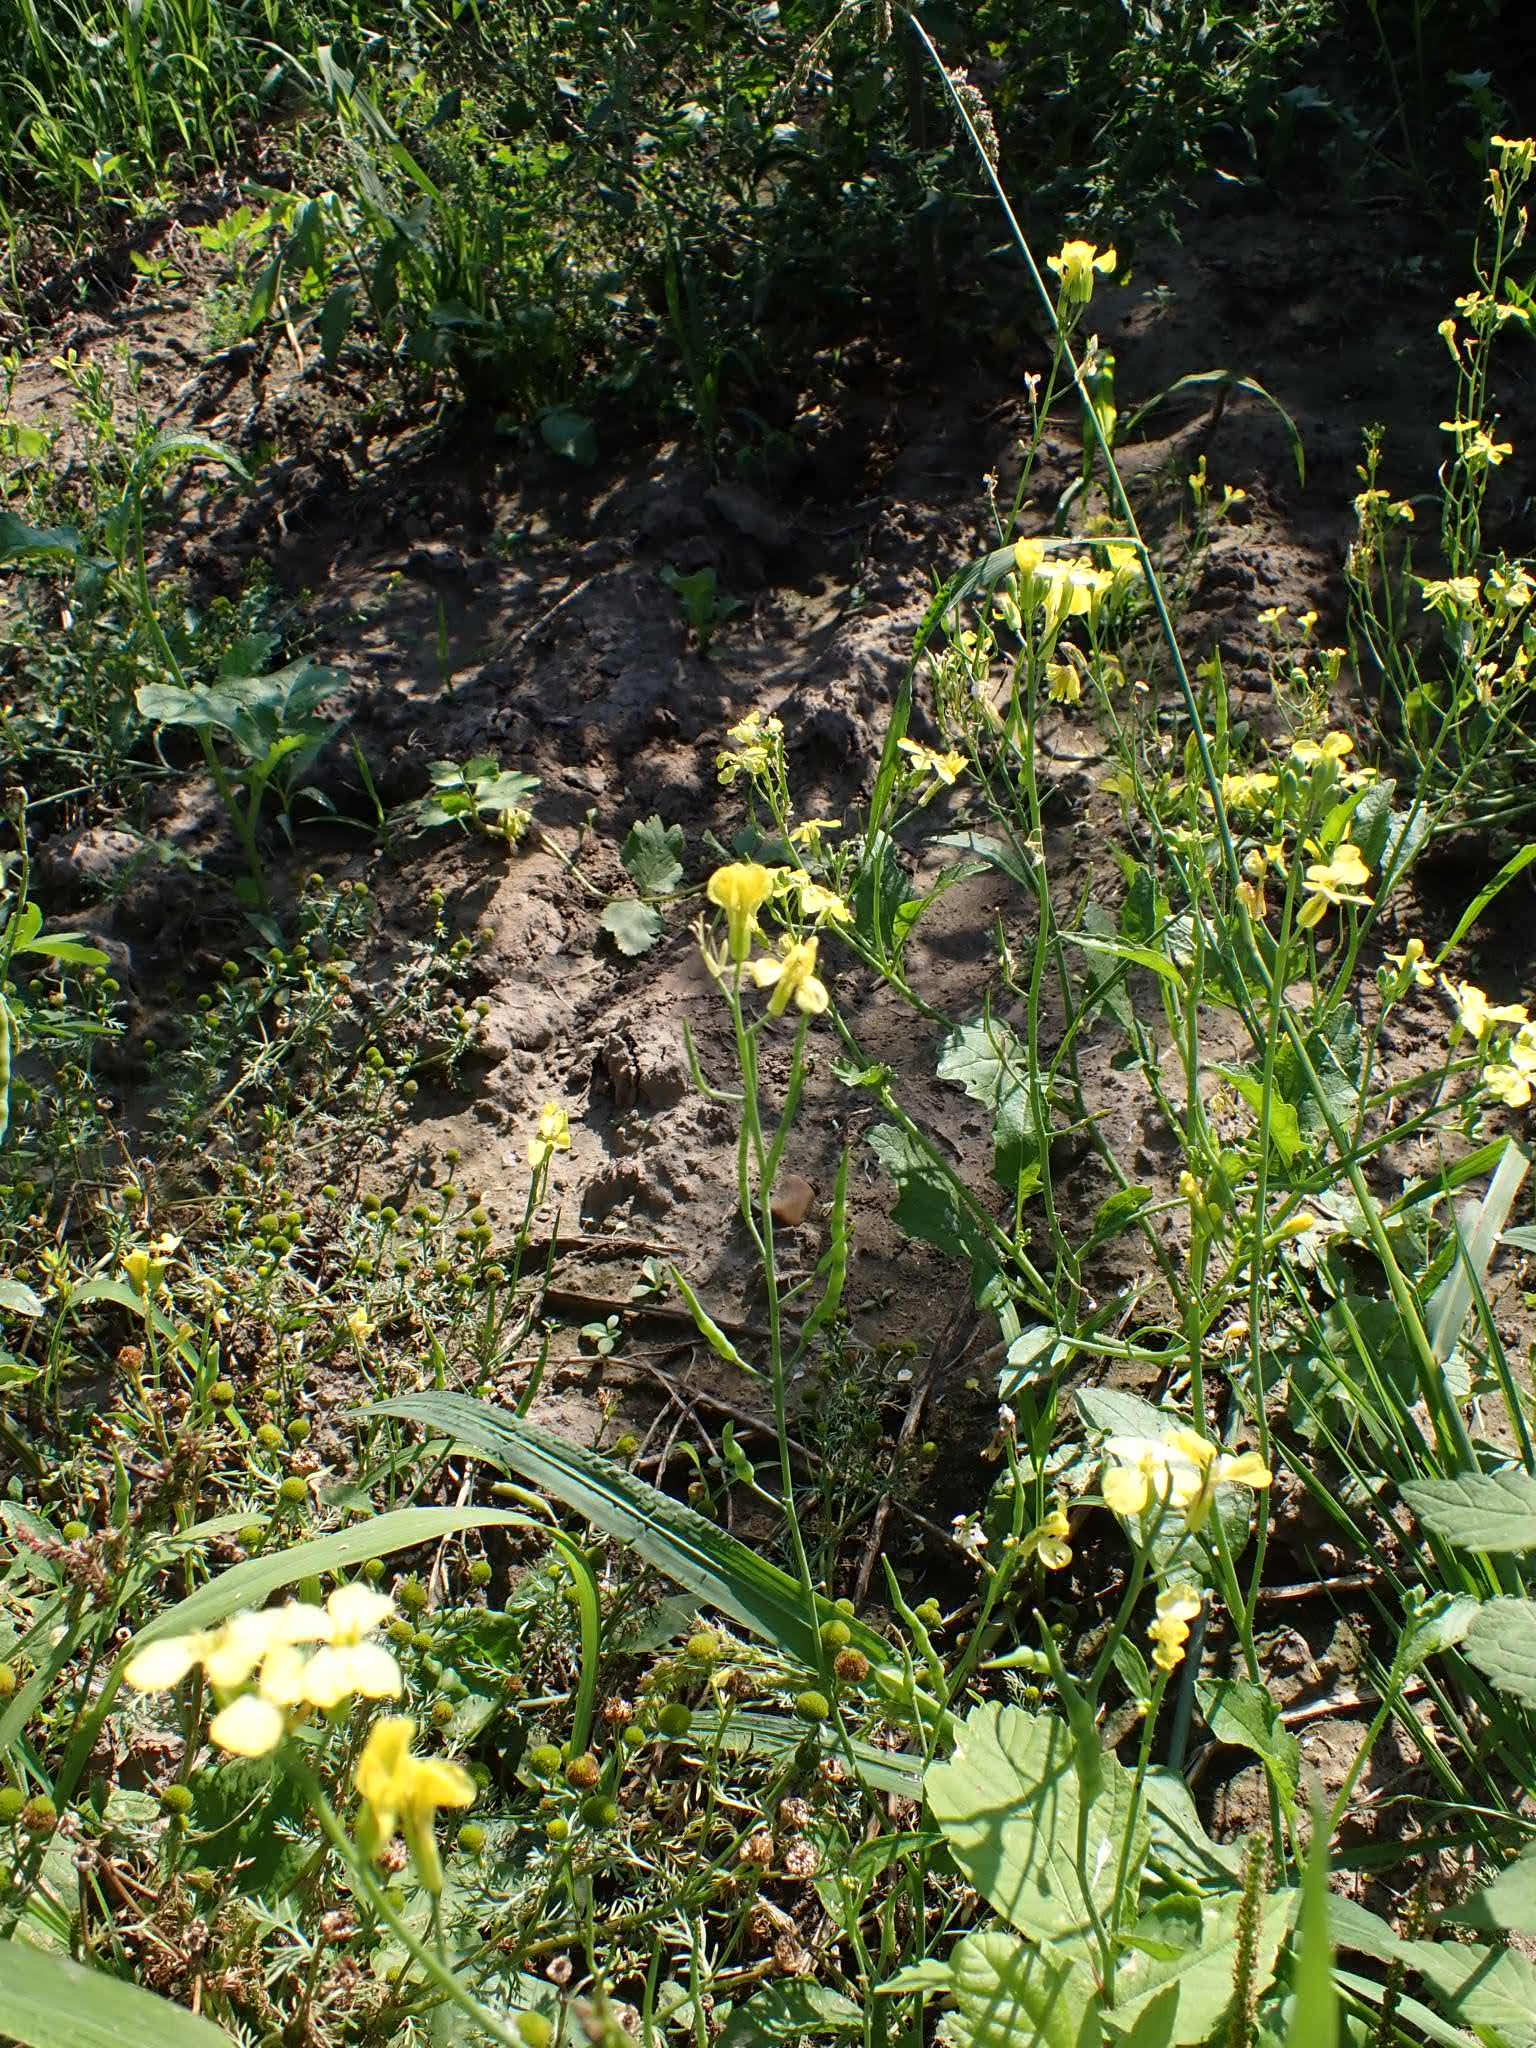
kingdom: Plantae
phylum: Tracheophyta
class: Magnoliopsida
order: Brassicales
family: Brassicaceae
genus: Raphanus
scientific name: Raphanus raphanistrum
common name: Wild radish
